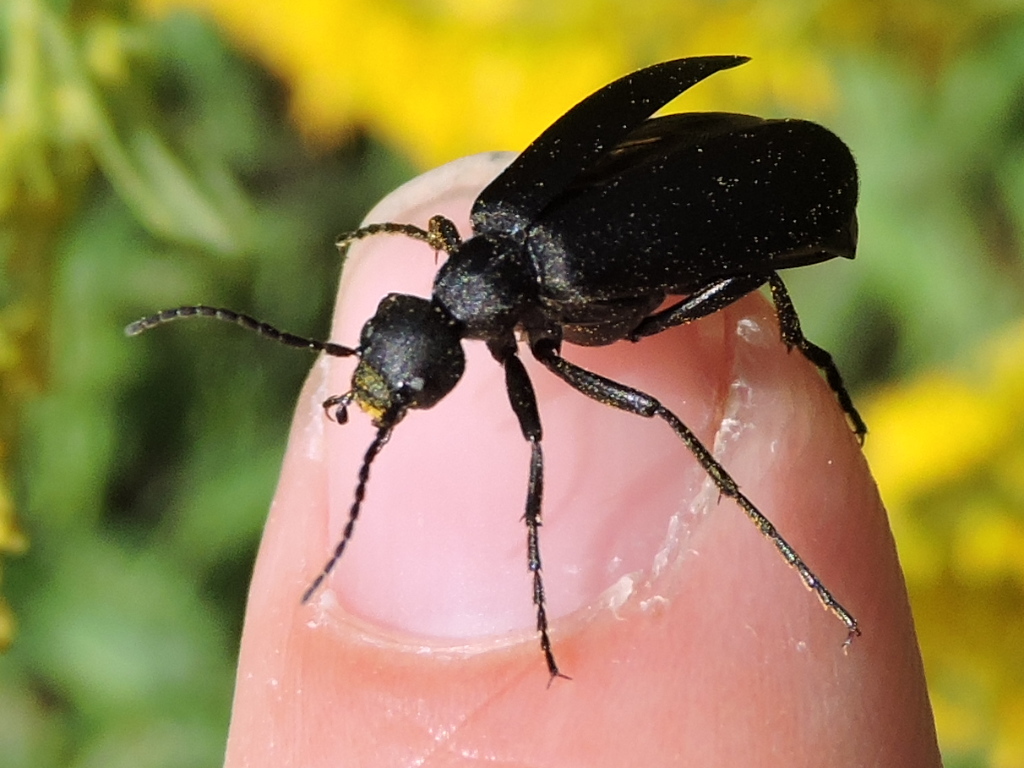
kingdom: Animalia
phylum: Arthropoda
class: Insecta
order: Coleoptera
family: Meloidae
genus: Epicauta
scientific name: Epicauta pensylvanica
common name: Black blister beetle
